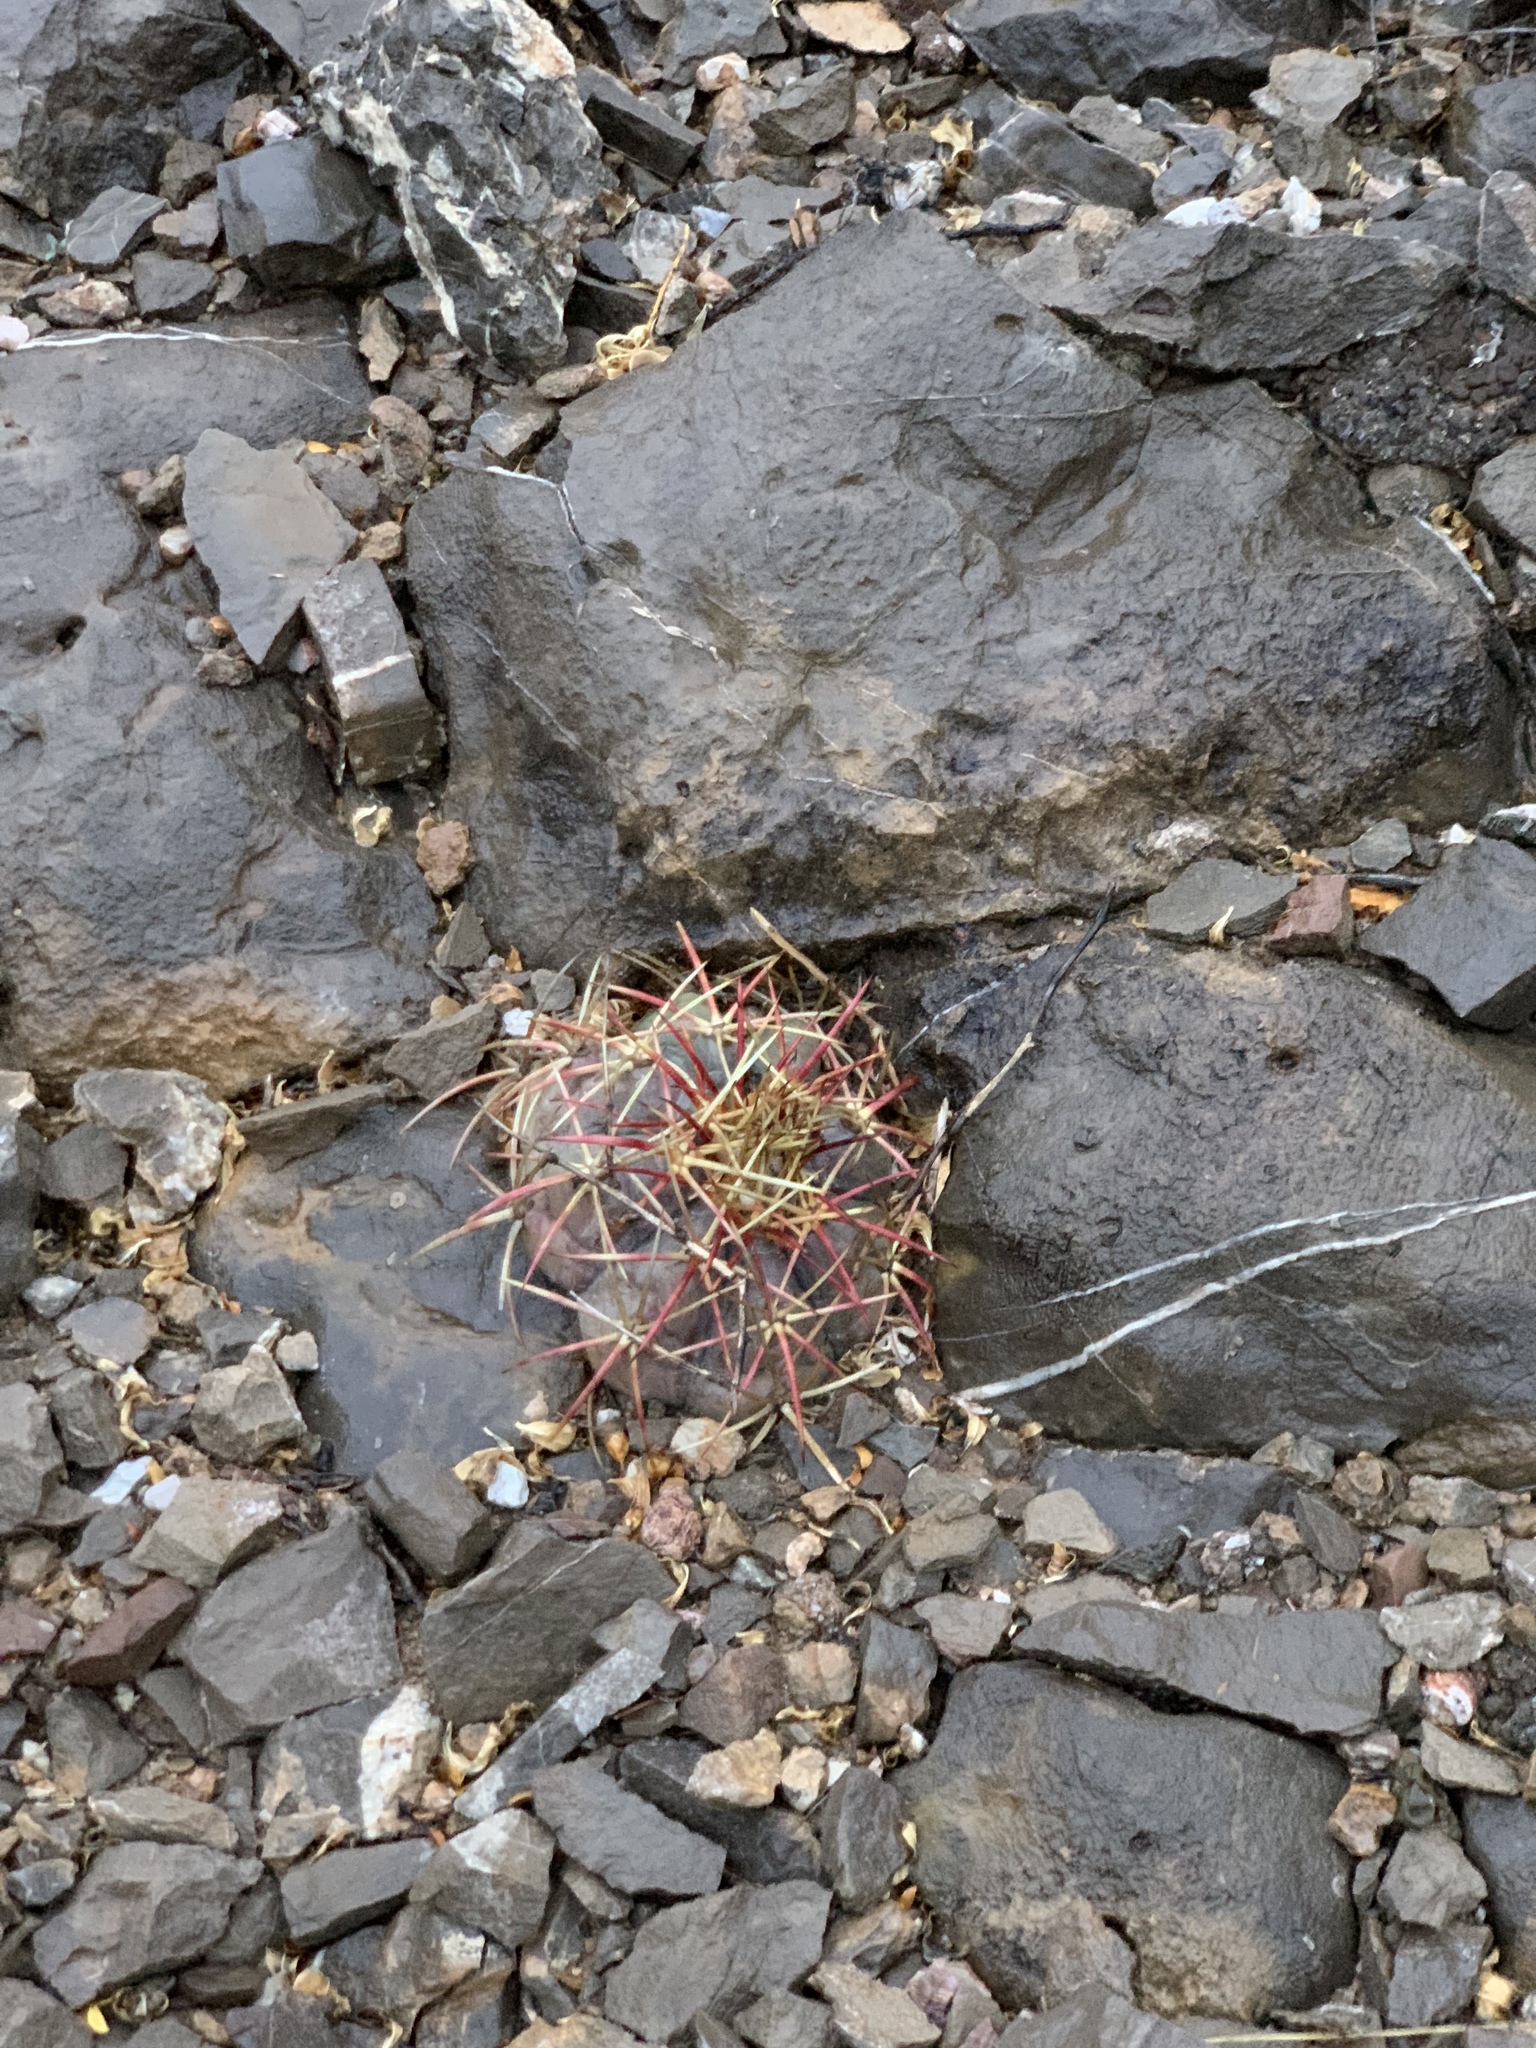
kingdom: Plantae
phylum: Tracheophyta
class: Magnoliopsida
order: Caryophyllales
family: Cactaceae
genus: Echinocactus
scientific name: Echinocactus horizonthalonius
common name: Devilshead
